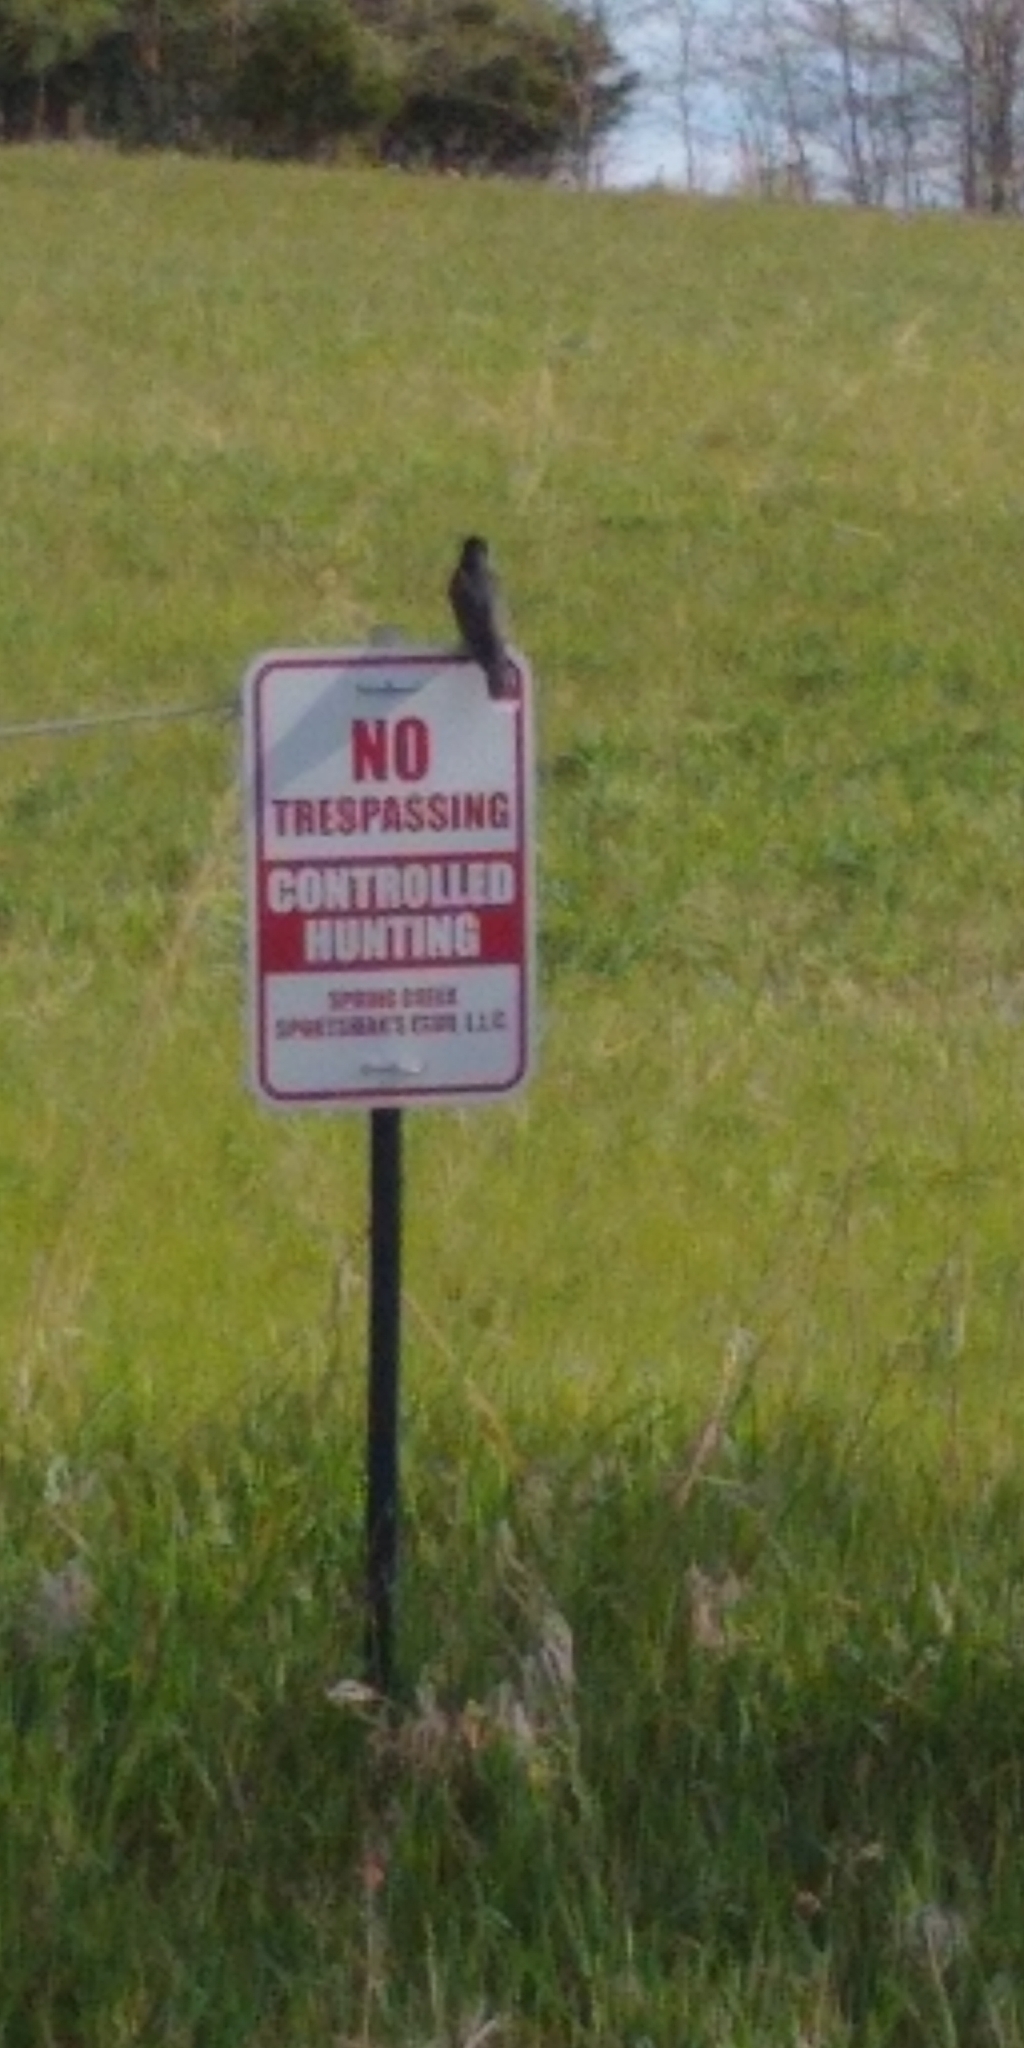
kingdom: Animalia
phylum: Chordata
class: Aves
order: Passeriformes
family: Tyrannidae
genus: Tyrannus
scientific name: Tyrannus tyrannus
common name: Eastern kingbird
